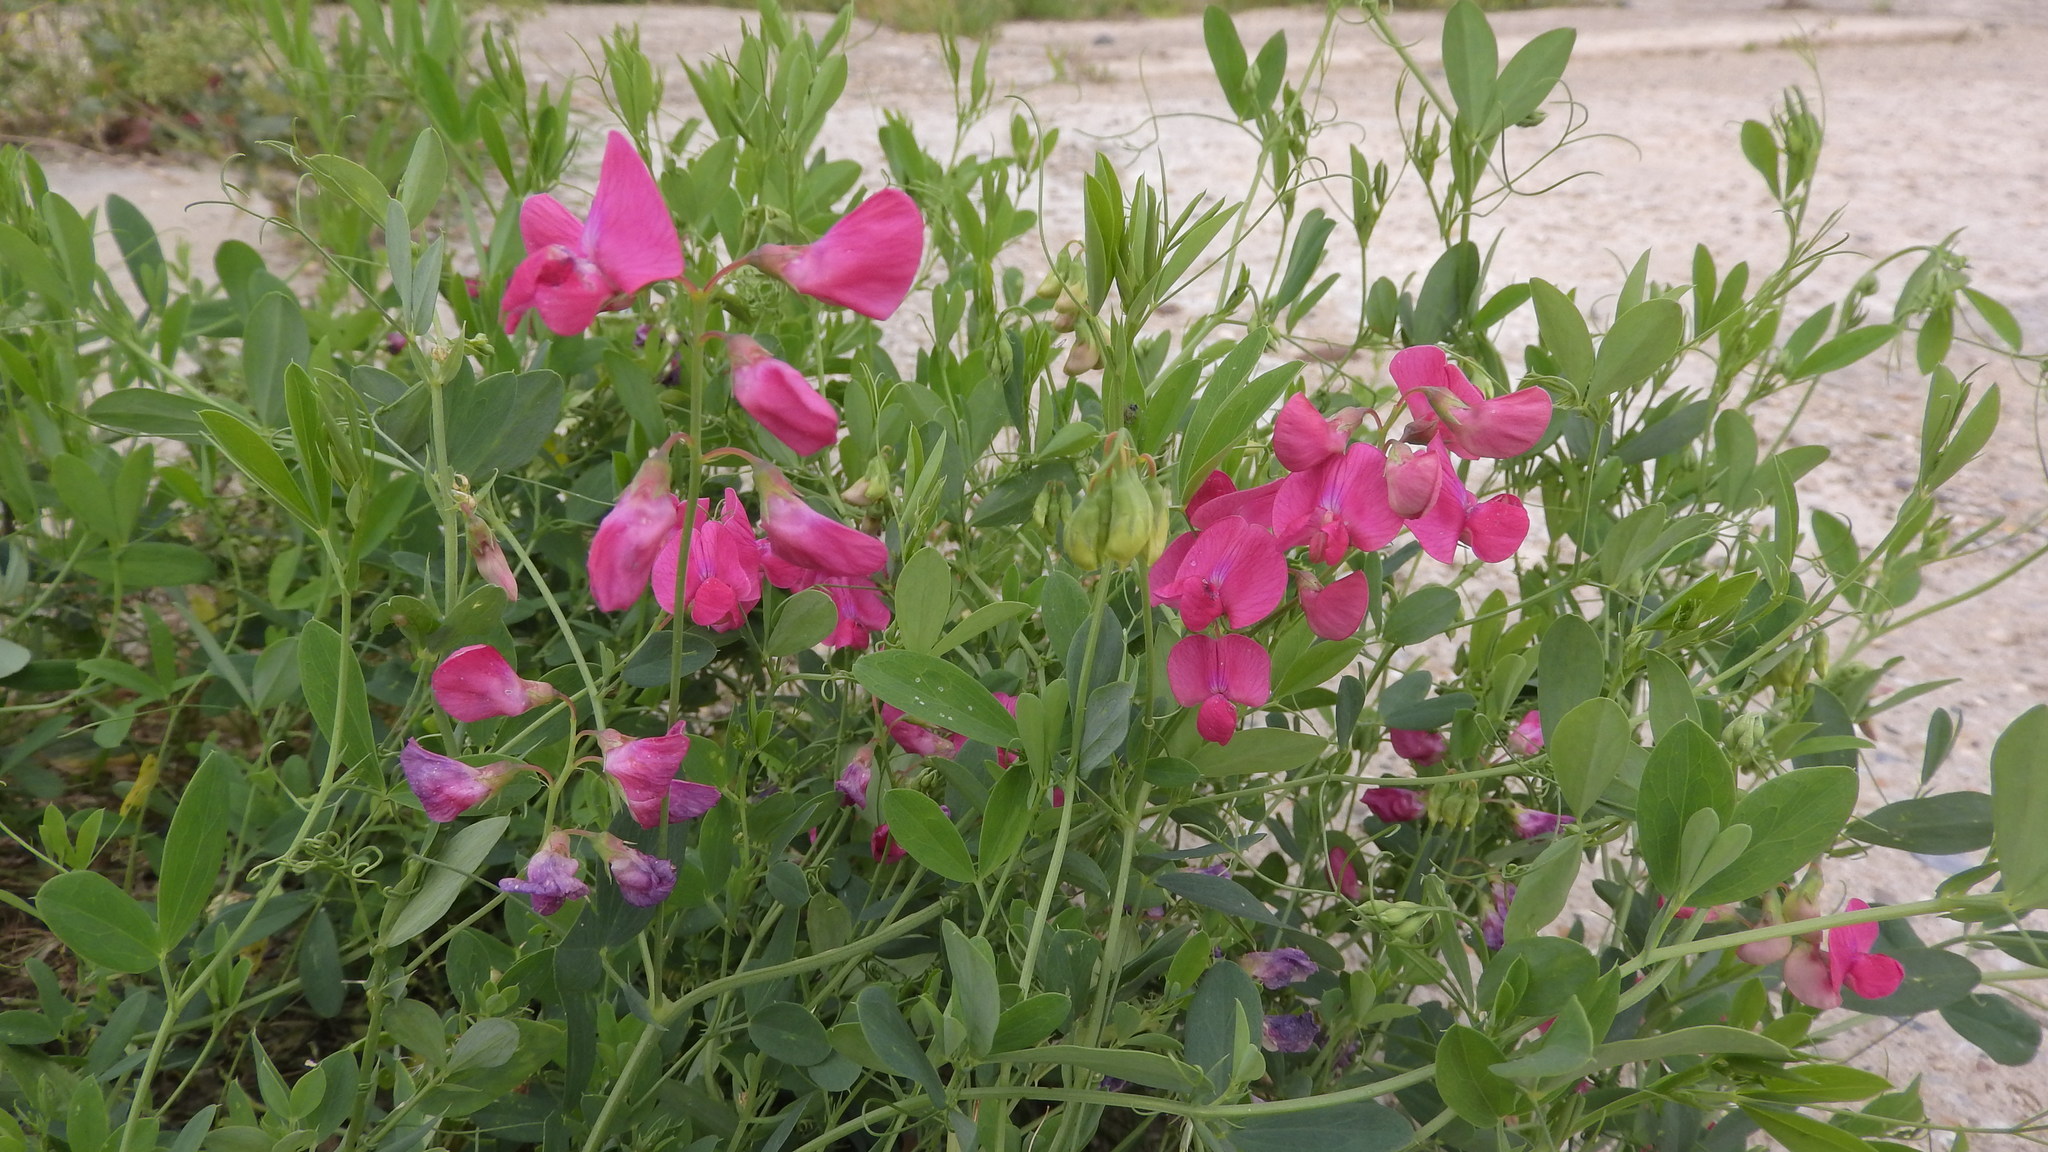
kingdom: Plantae
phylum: Tracheophyta
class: Magnoliopsida
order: Fabales
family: Fabaceae
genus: Lathyrus
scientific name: Lathyrus tuberosus
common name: Tuberous pea
